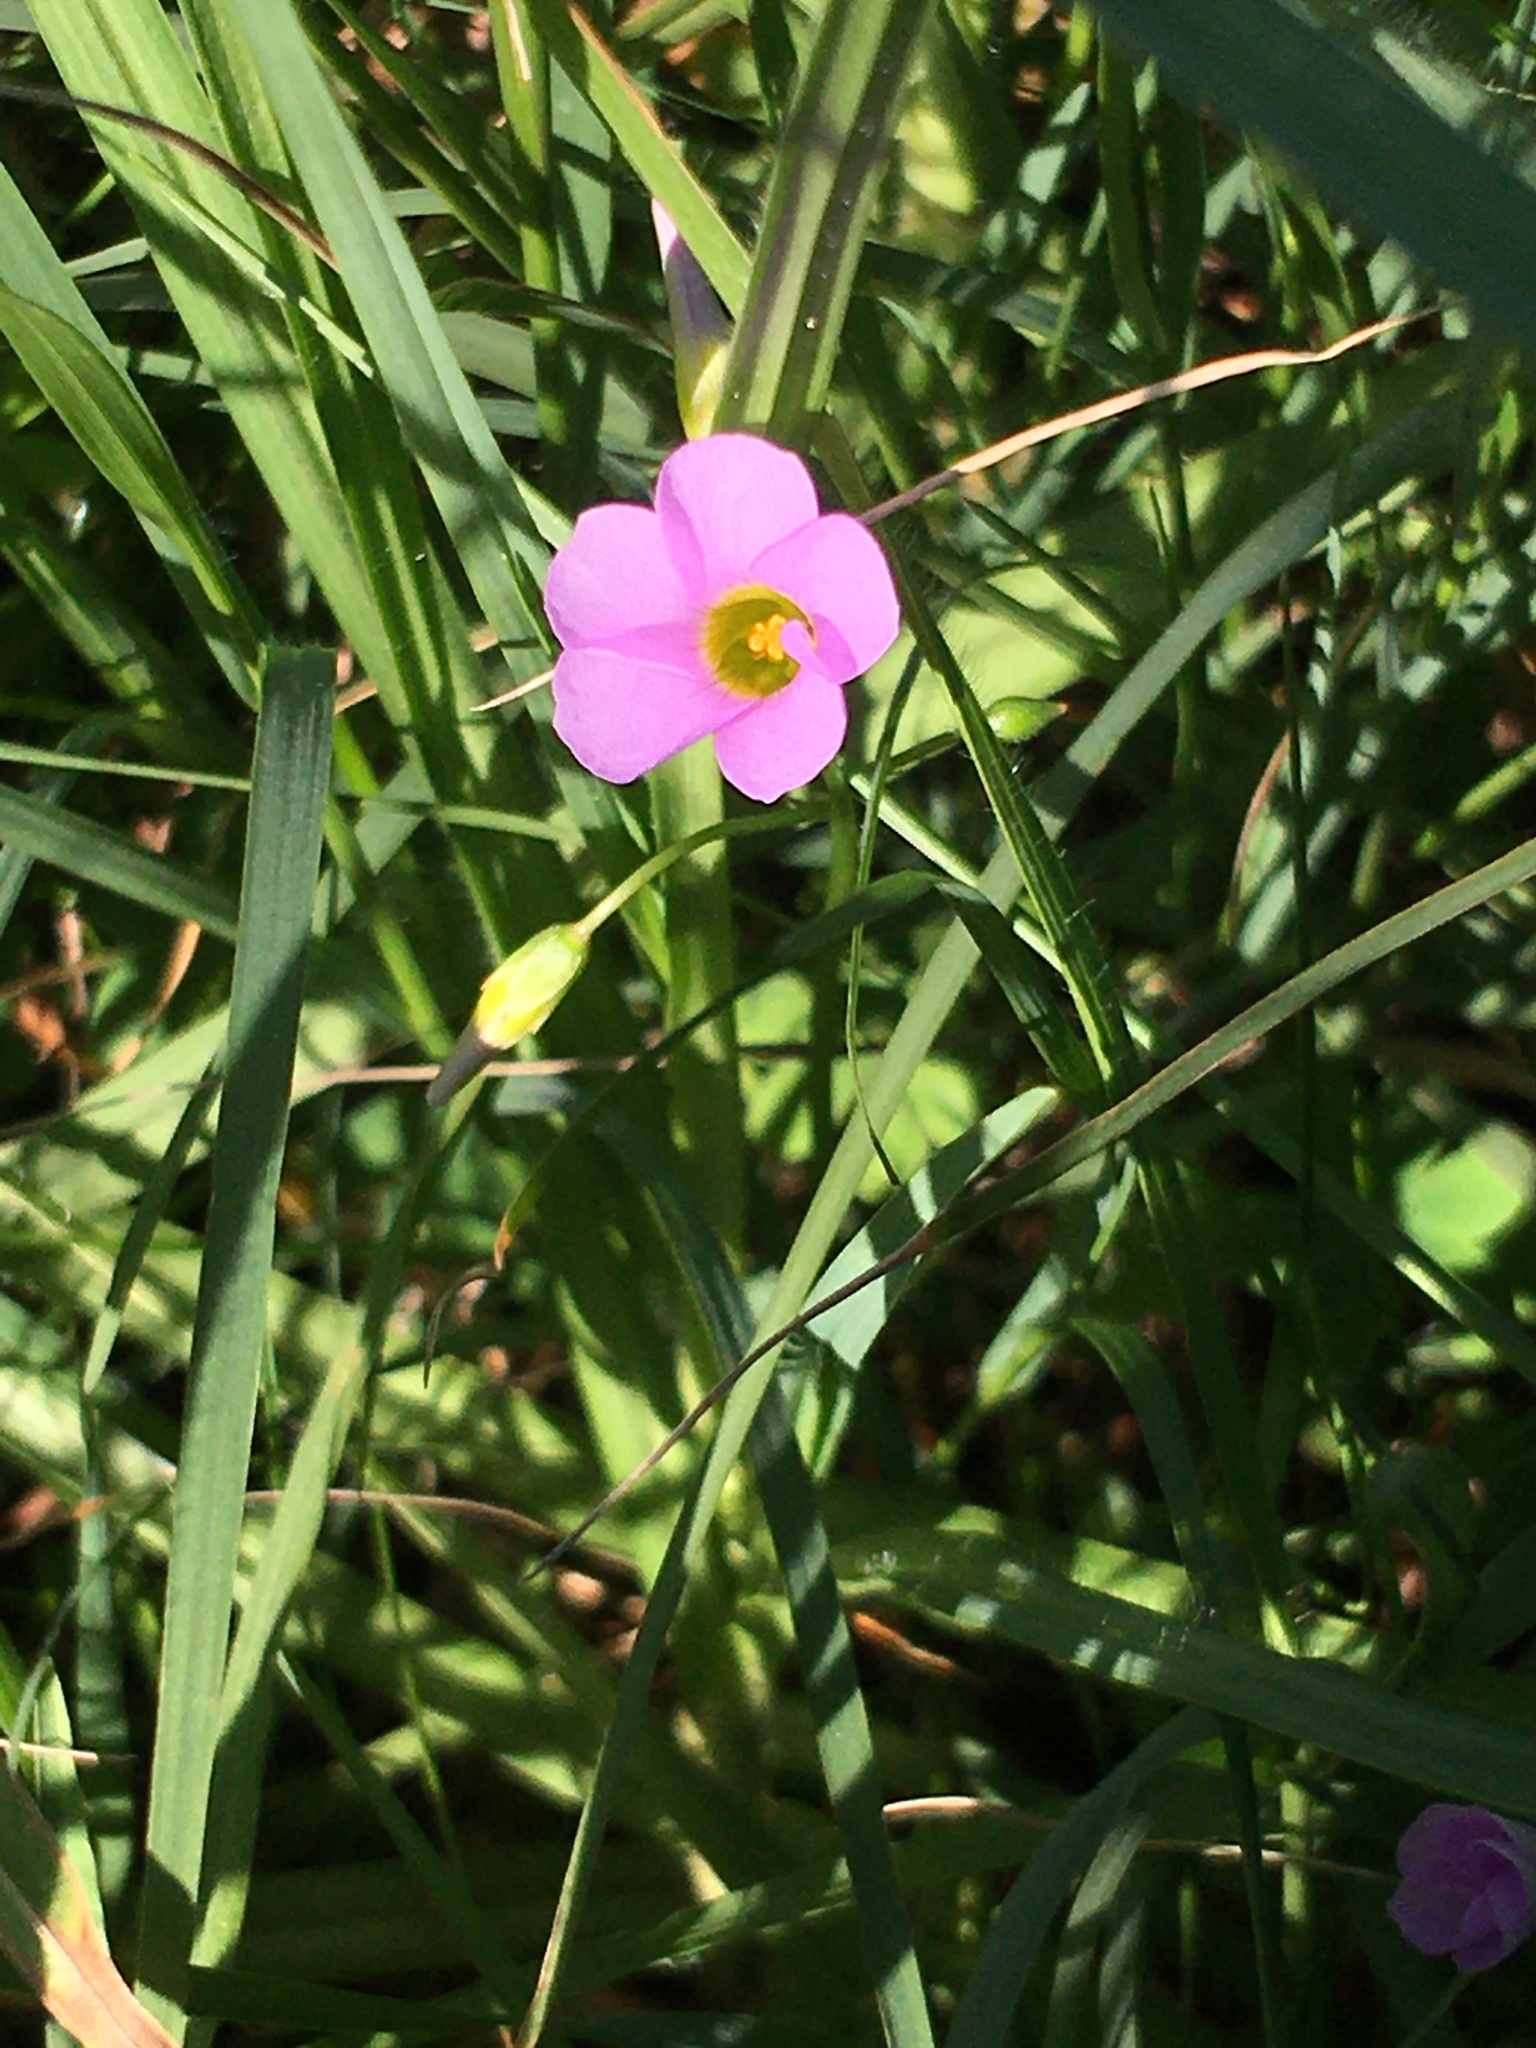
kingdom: Plantae
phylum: Tracheophyta
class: Magnoliopsida
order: Oxalidales
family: Oxalidaceae
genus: Oxalis
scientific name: Oxalis caprina
